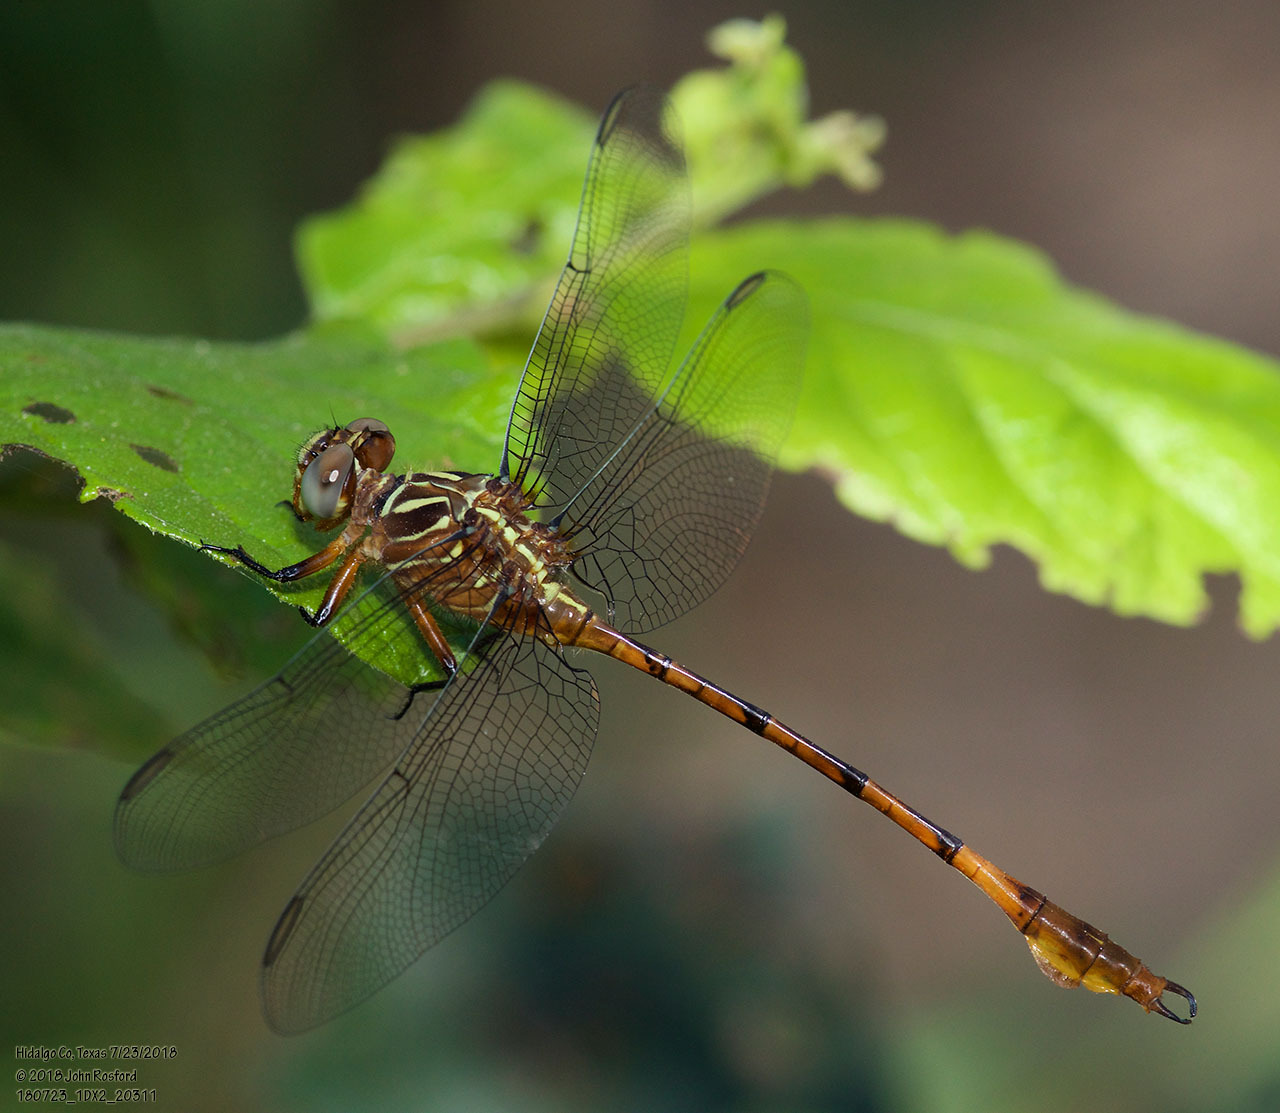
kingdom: Animalia
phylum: Arthropoda
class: Insecta
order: Odonata
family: Gomphidae
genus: Aphylla
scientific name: Aphylla protracta
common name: Narrow-striped forceptail
